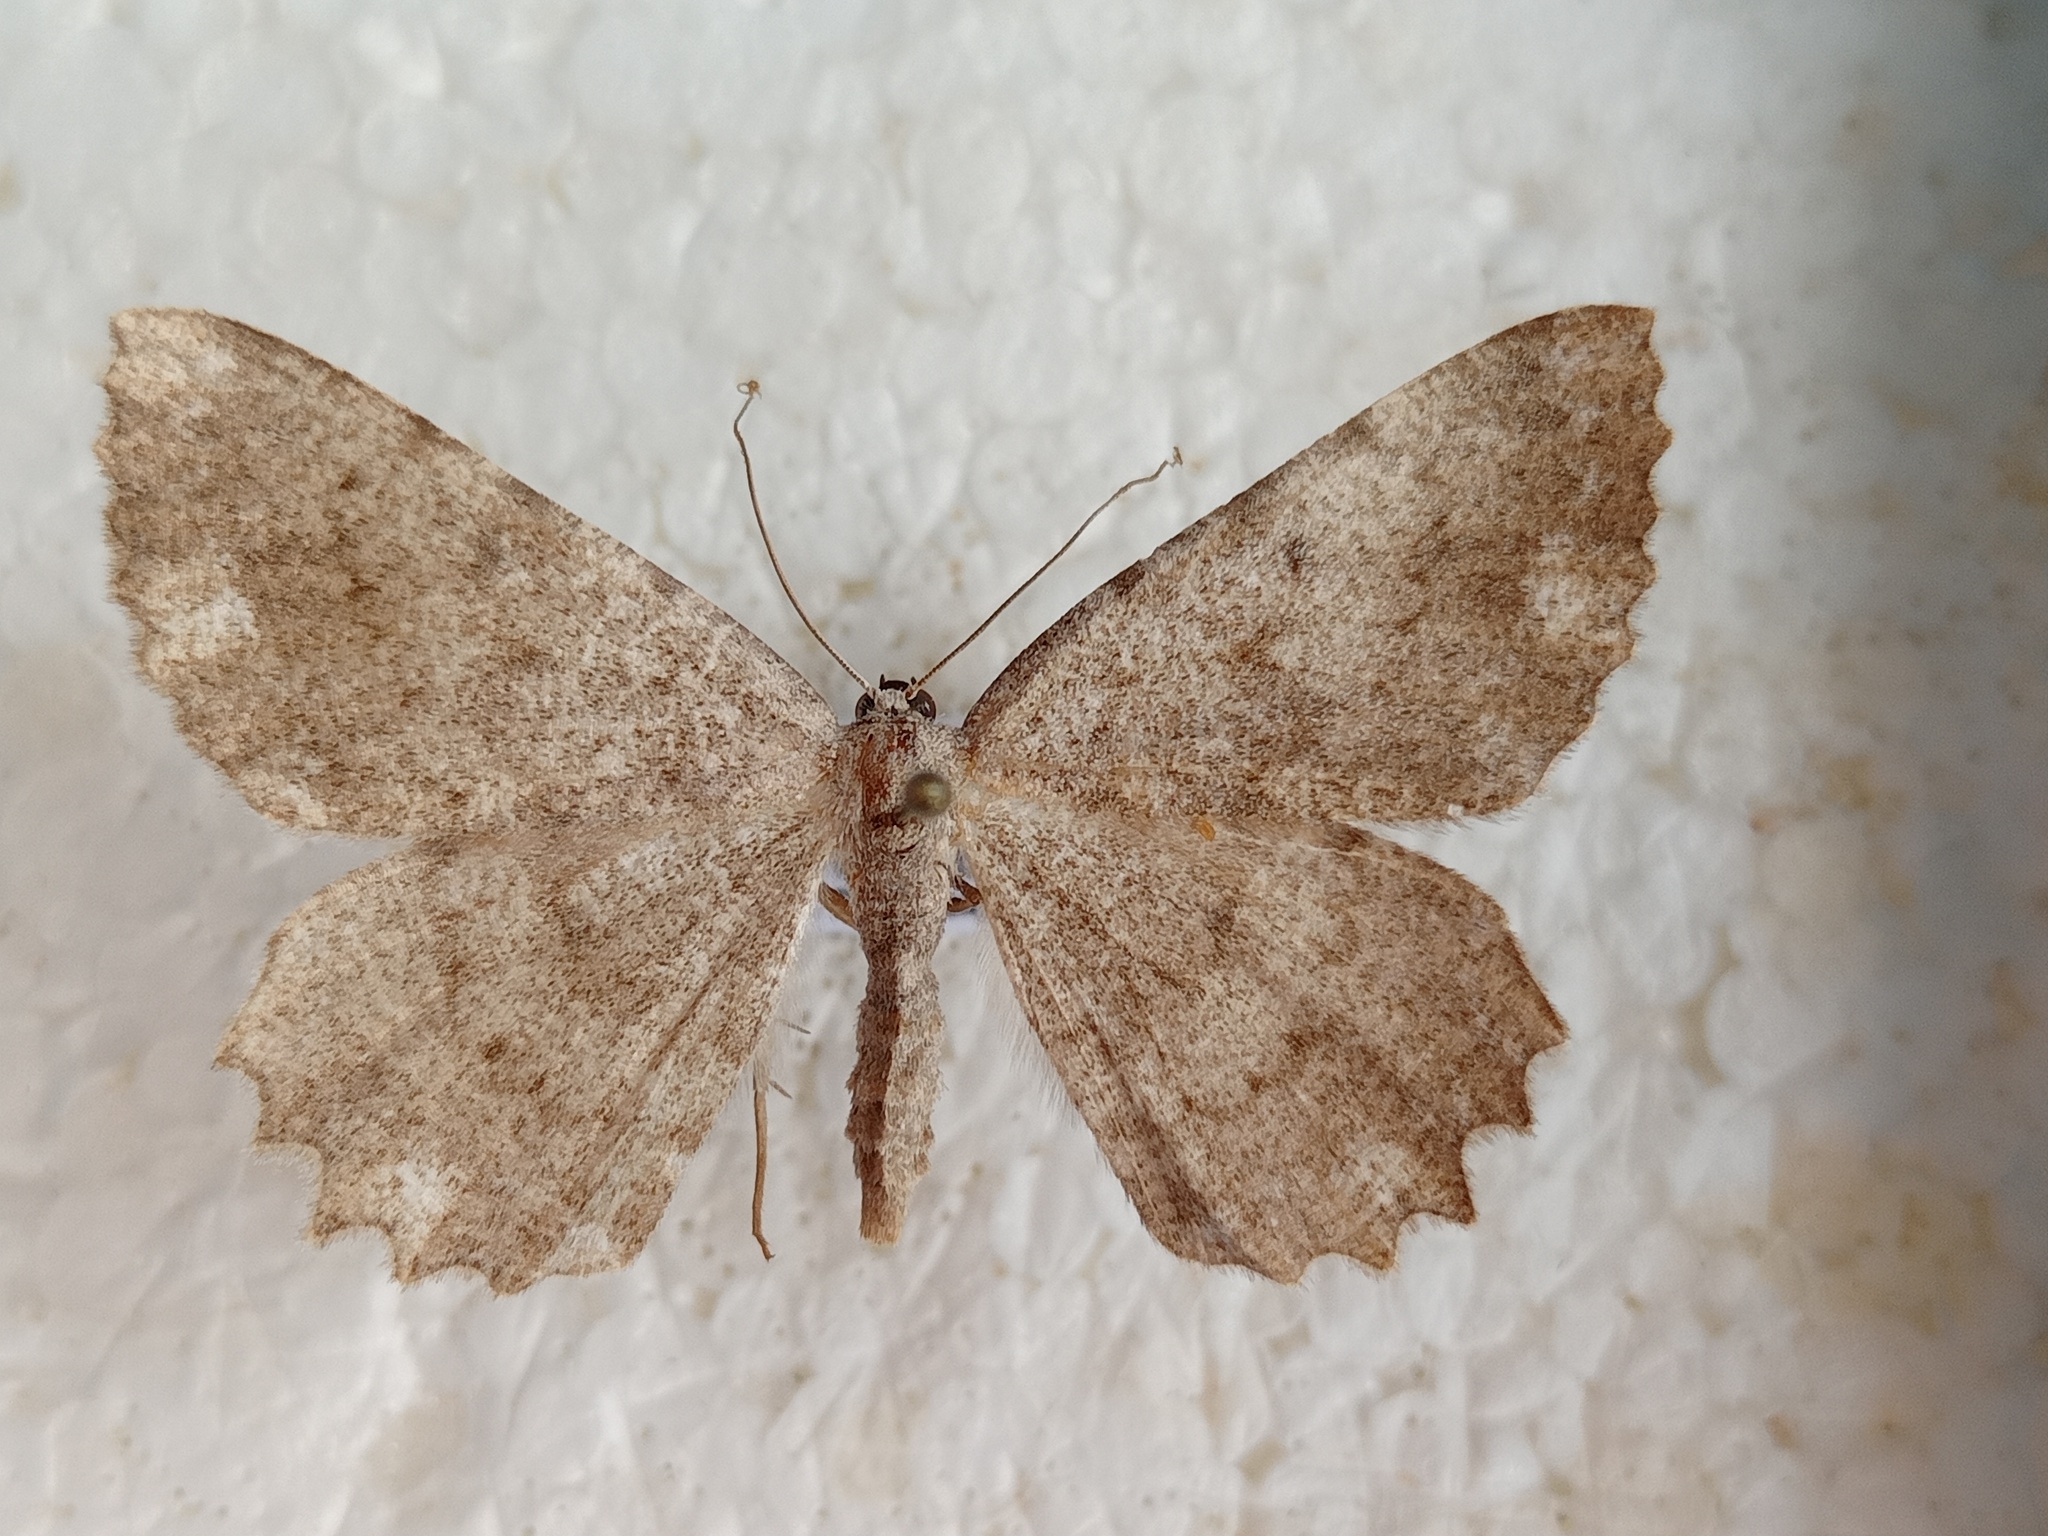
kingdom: Animalia
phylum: Arthropoda
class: Insecta
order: Lepidoptera
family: Geometridae
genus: Gnophos
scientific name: Gnophos sartata
